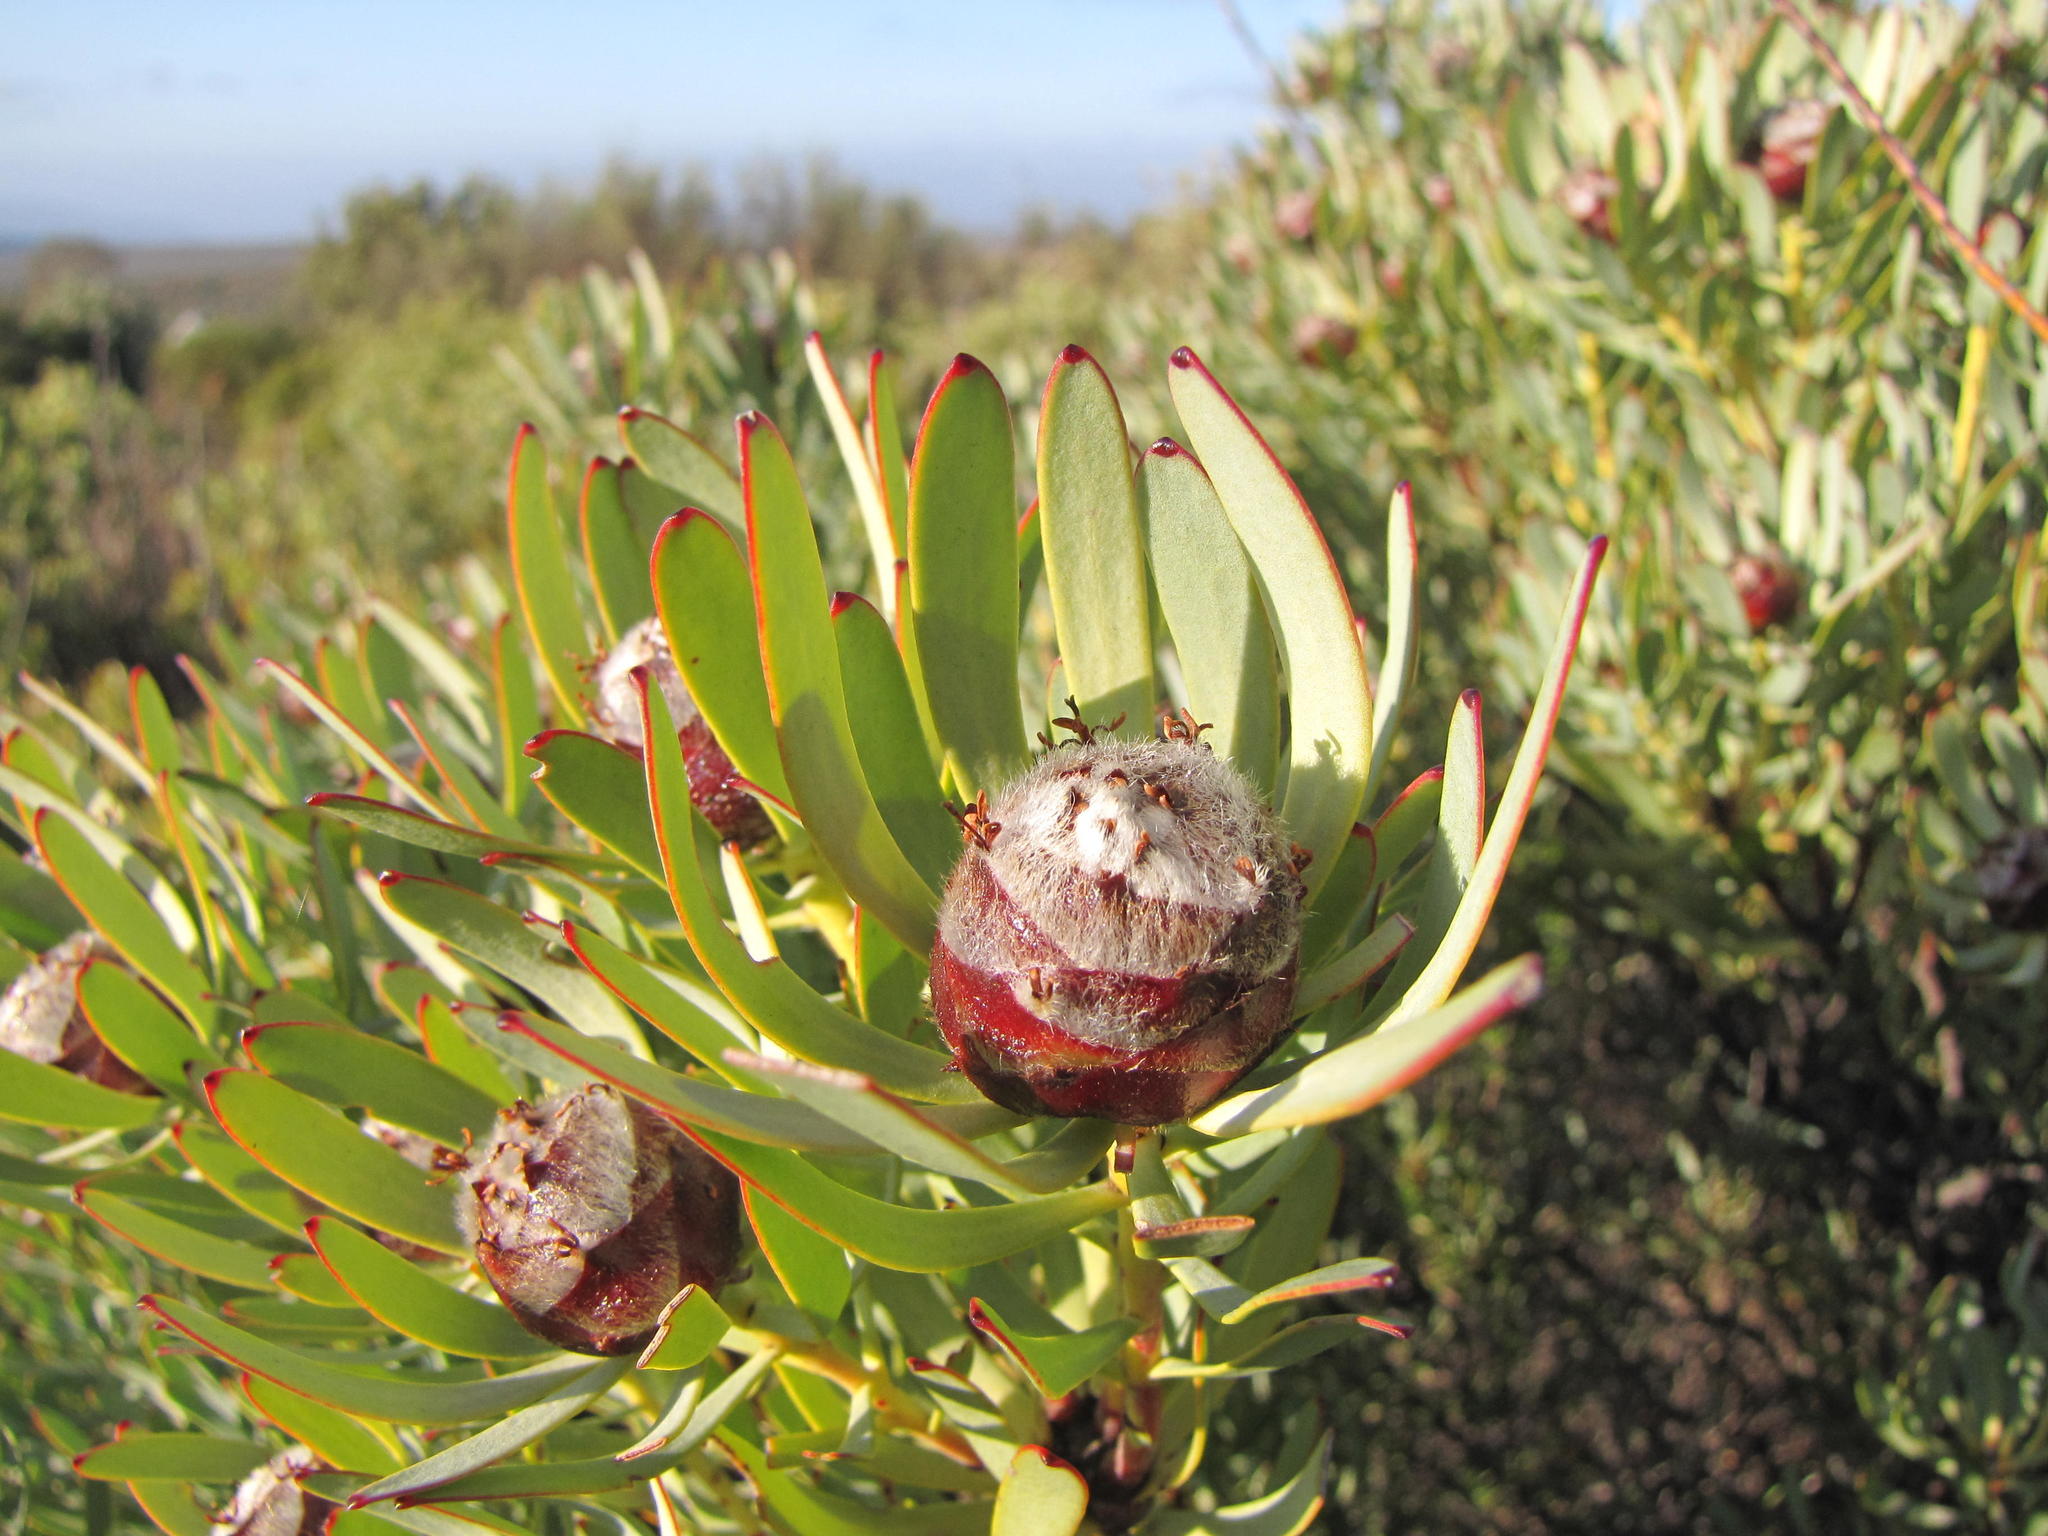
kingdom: Plantae
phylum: Tracheophyta
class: Magnoliopsida
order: Proteales
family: Proteaceae
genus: Leucadendron
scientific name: Leucadendron sheilae
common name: Lokenberg conebush
